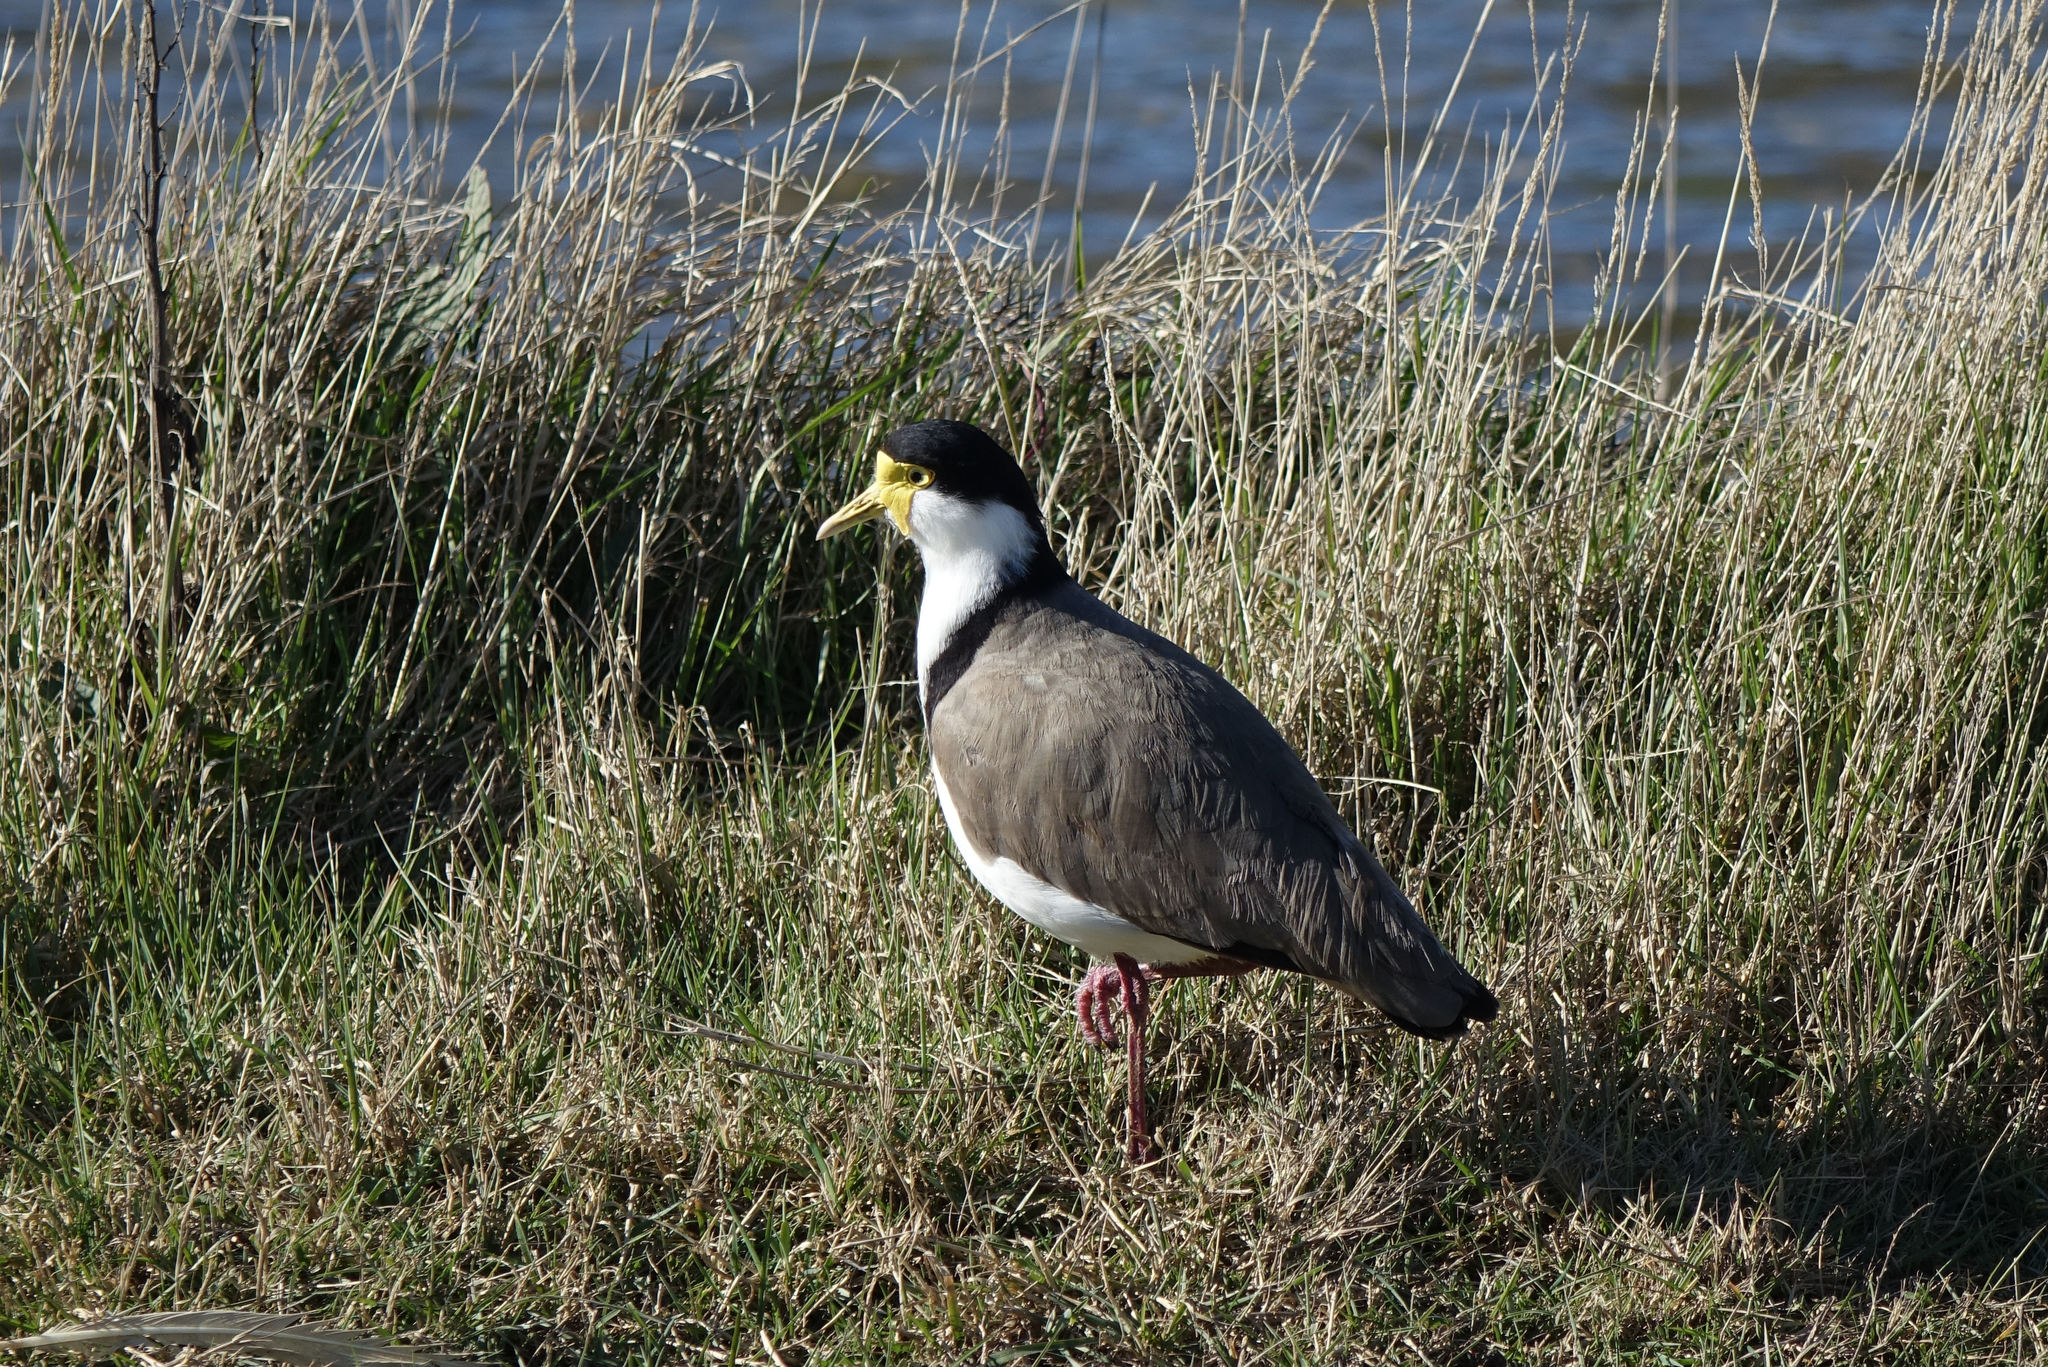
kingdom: Animalia
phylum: Chordata
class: Aves
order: Charadriiformes
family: Charadriidae
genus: Vanellus
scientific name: Vanellus miles
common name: Masked lapwing
